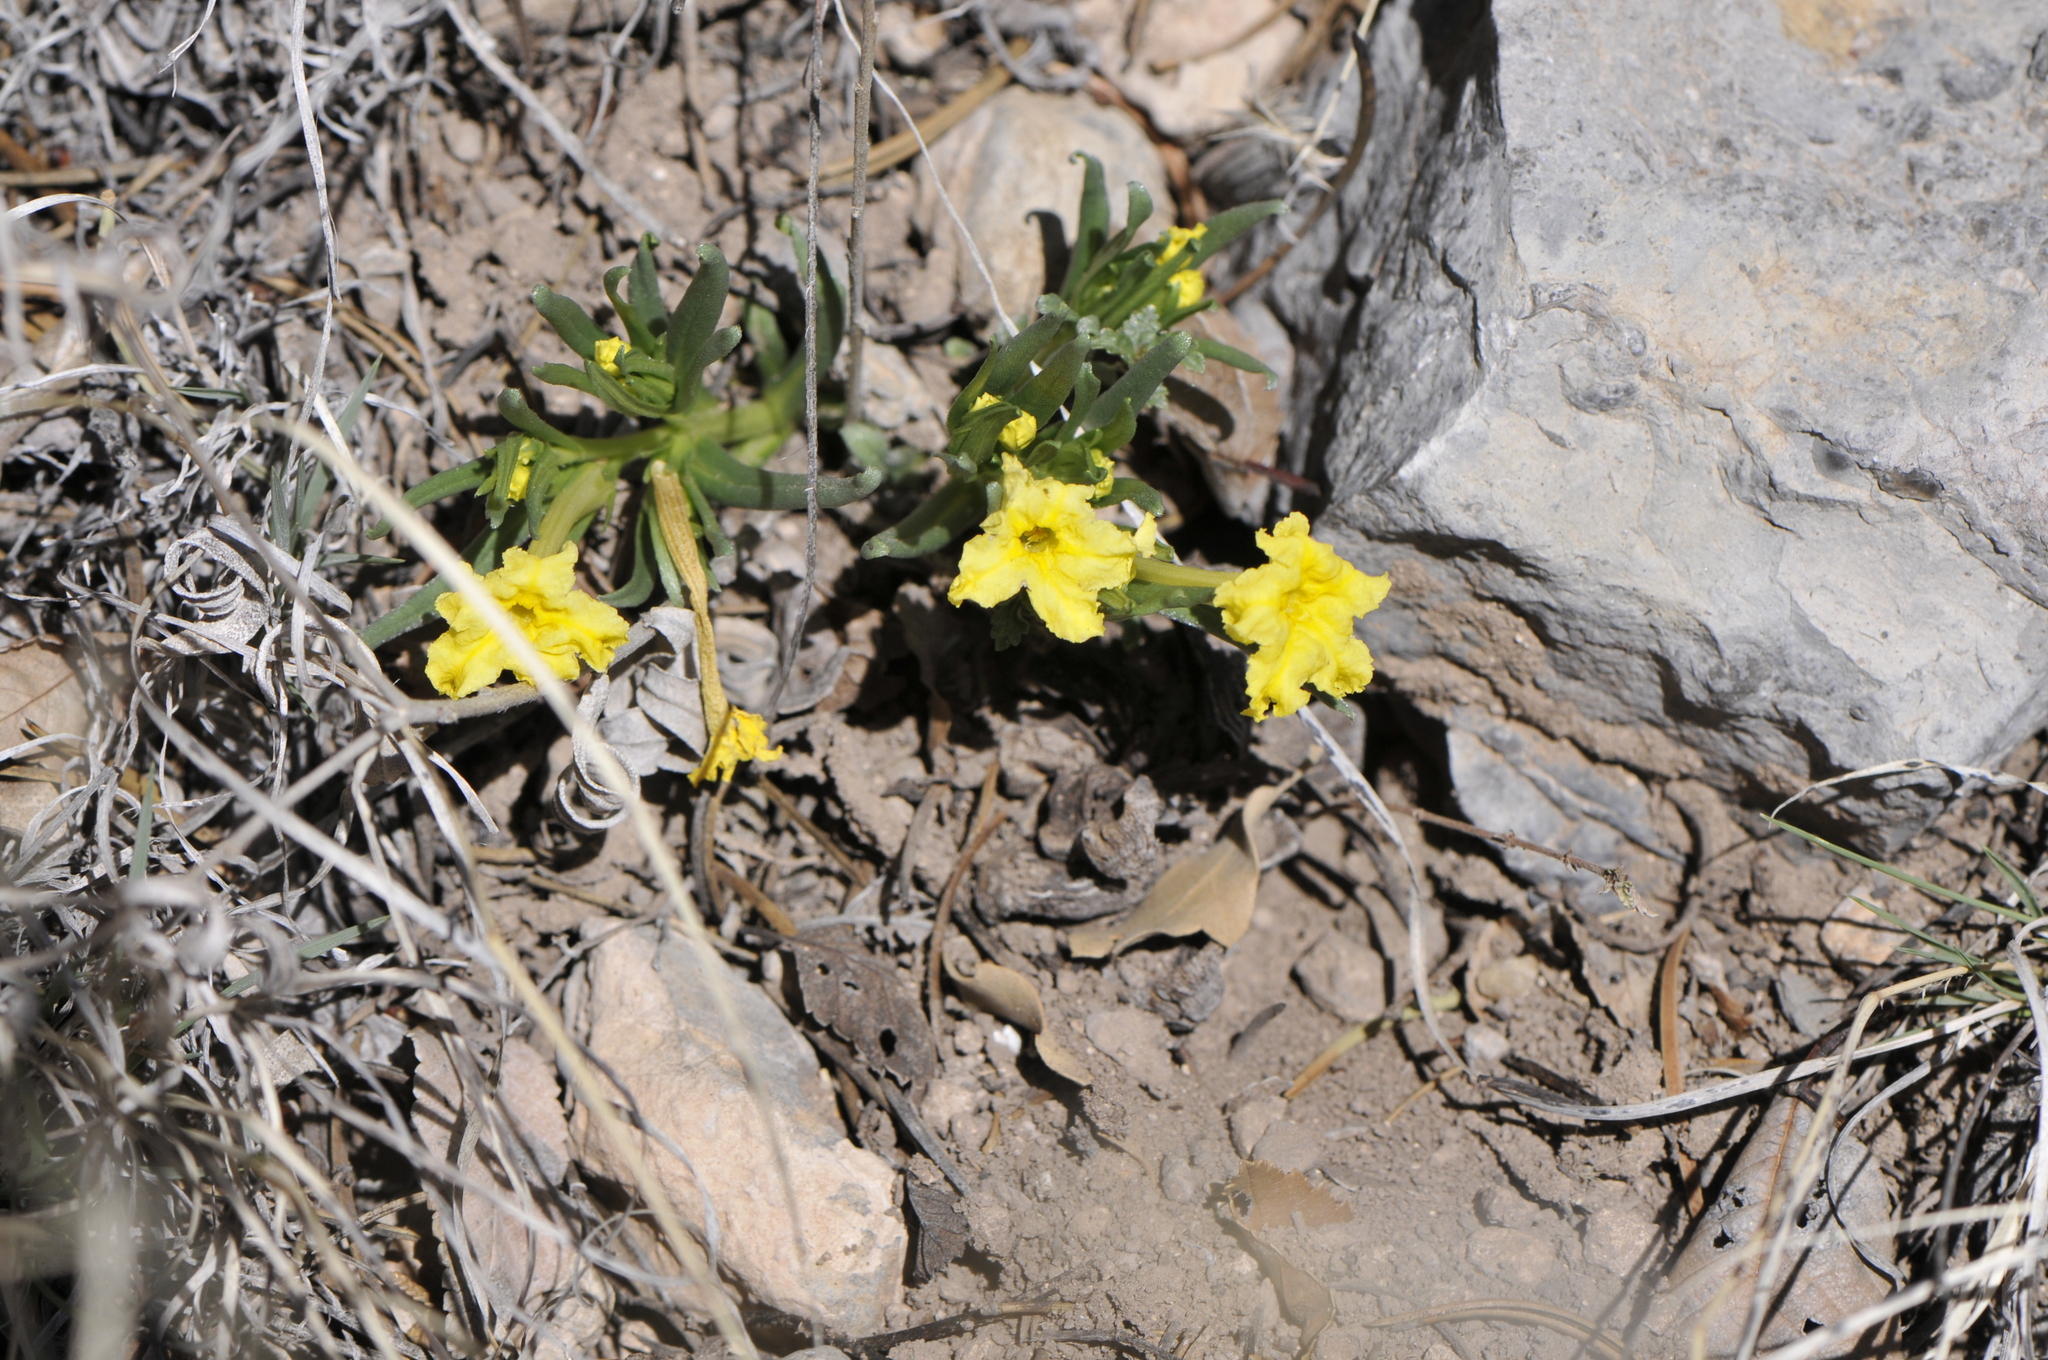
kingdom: Plantae
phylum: Tracheophyta
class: Magnoliopsida
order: Boraginales
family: Boraginaceae
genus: Lithospermum
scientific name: Lithospermum incisum
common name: Fringed gromwell
